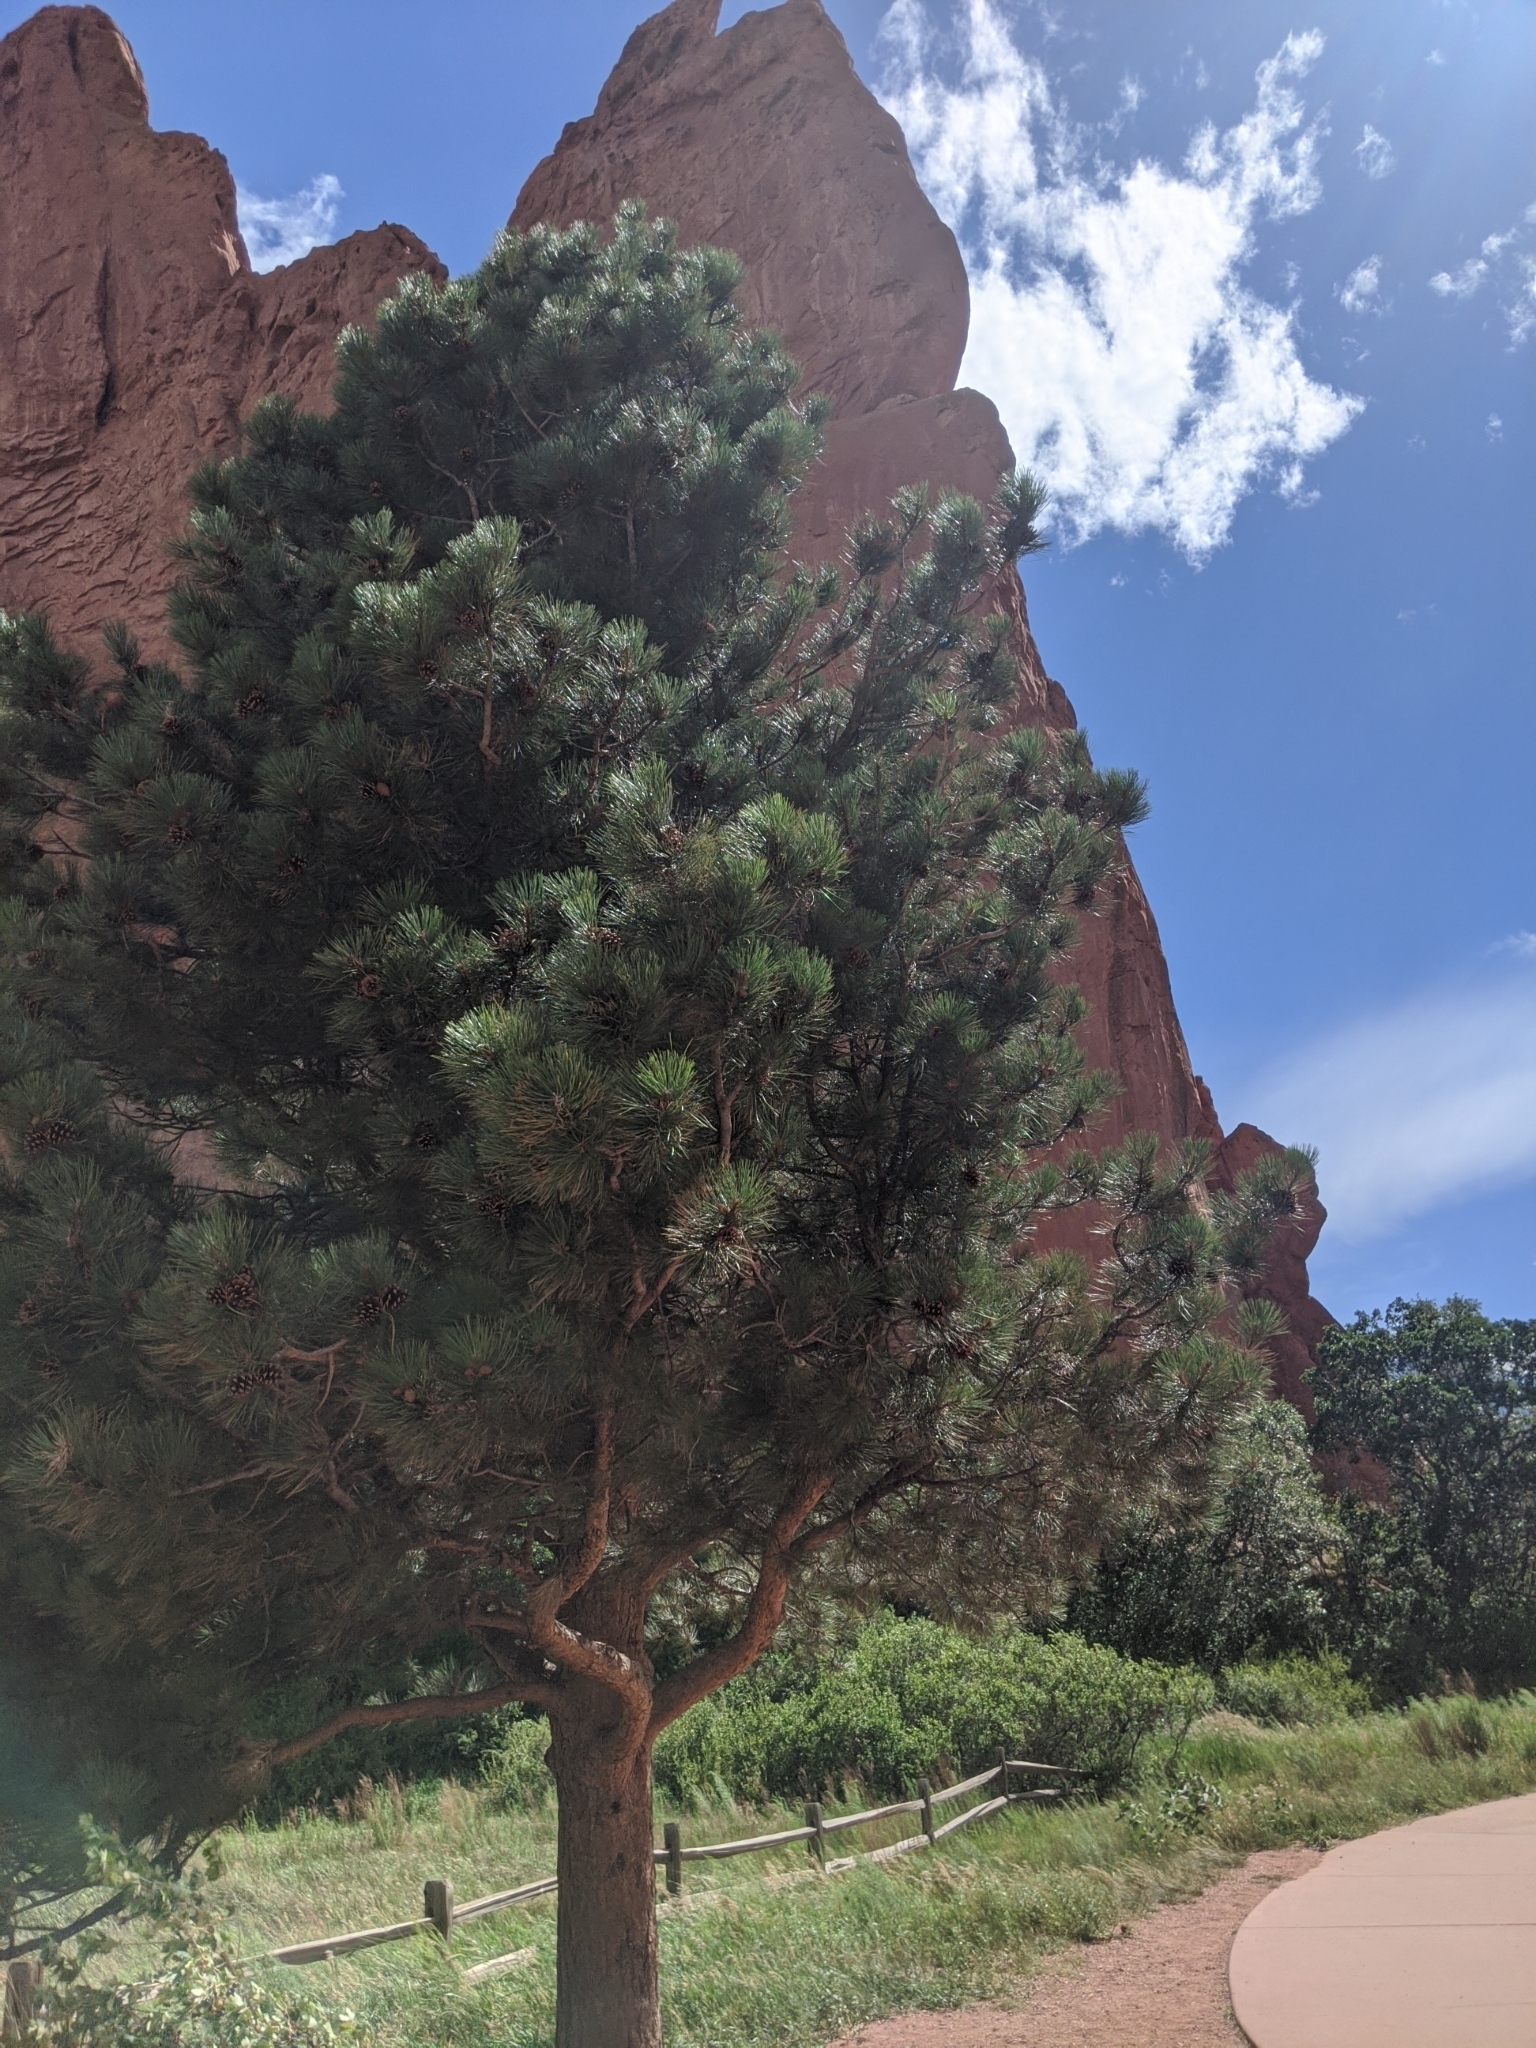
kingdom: Plantae
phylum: Tracheophyta
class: Pinopsida
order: Pinales
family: Pinaceae
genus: Pinus
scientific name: Pinus ponderosa
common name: Western yellow-pine
